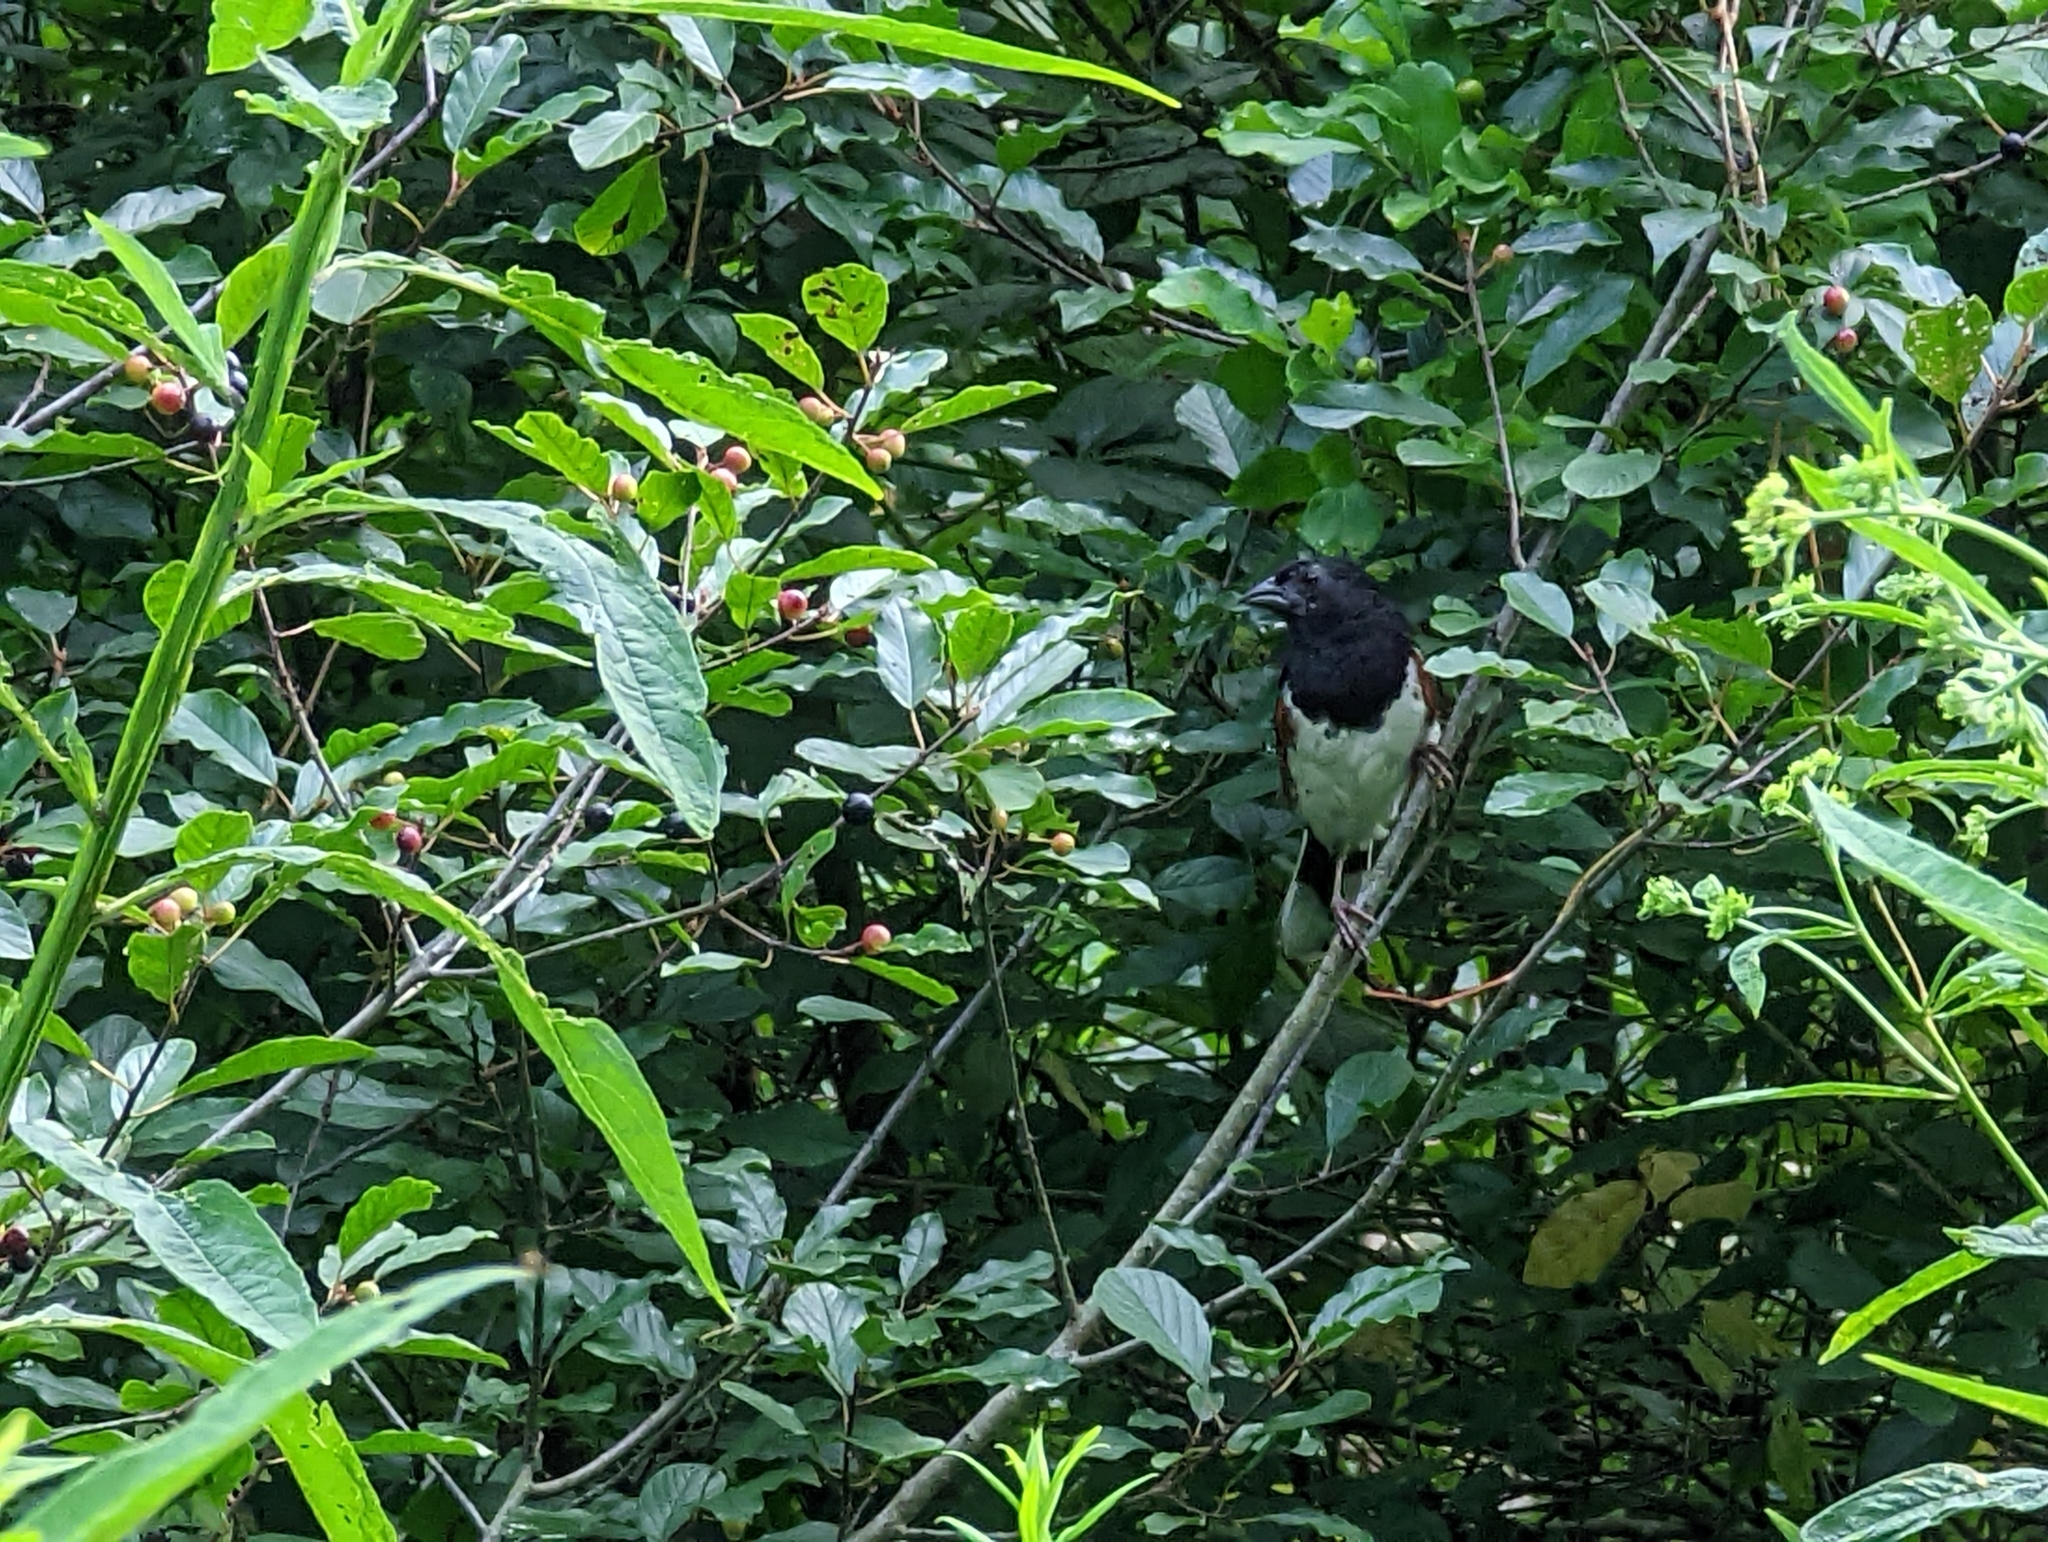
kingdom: Animalia
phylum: Chordata
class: Aves
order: Passeriformes
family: Passerellidae
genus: Pipilo
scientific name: Pipilo erythrophthalmus
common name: Eastern towhee
